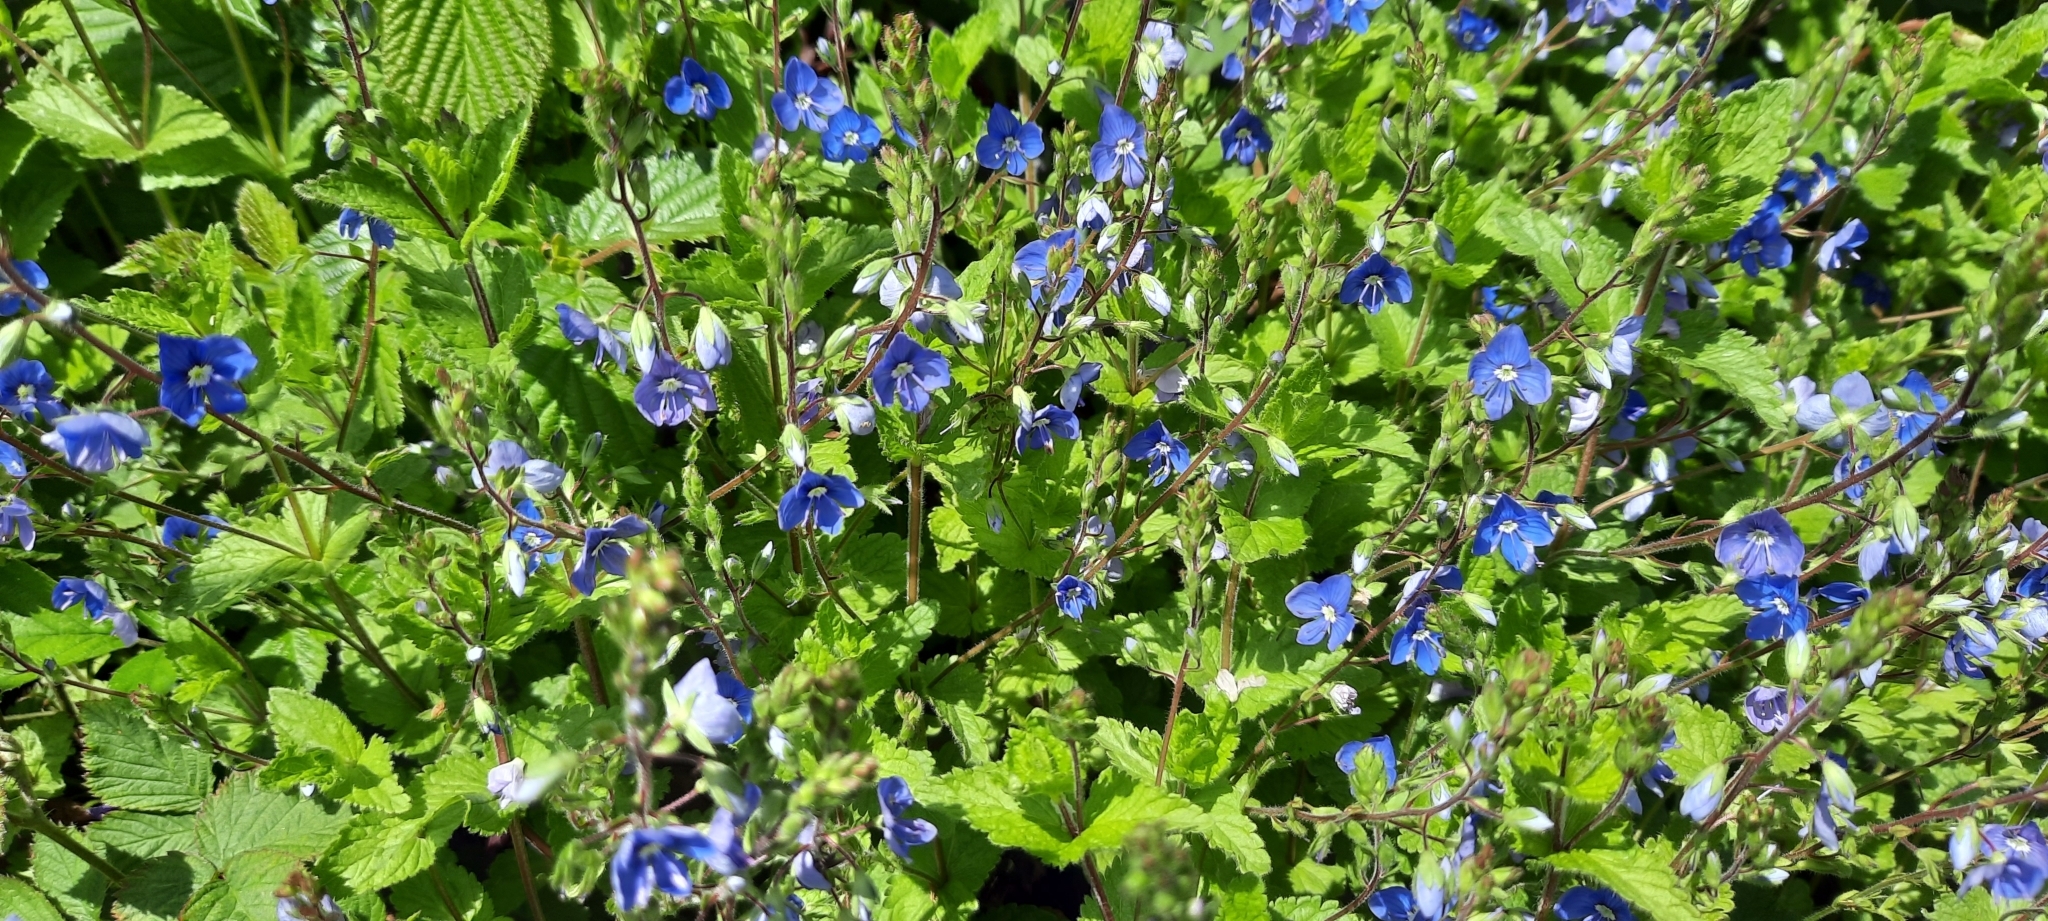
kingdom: Plantae
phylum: Tracheophyta
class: Magnoliopsida
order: Lamiales
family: Plantaginaceae
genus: Veronica
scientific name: Veronica chamaedrys
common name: Germander speedwell
